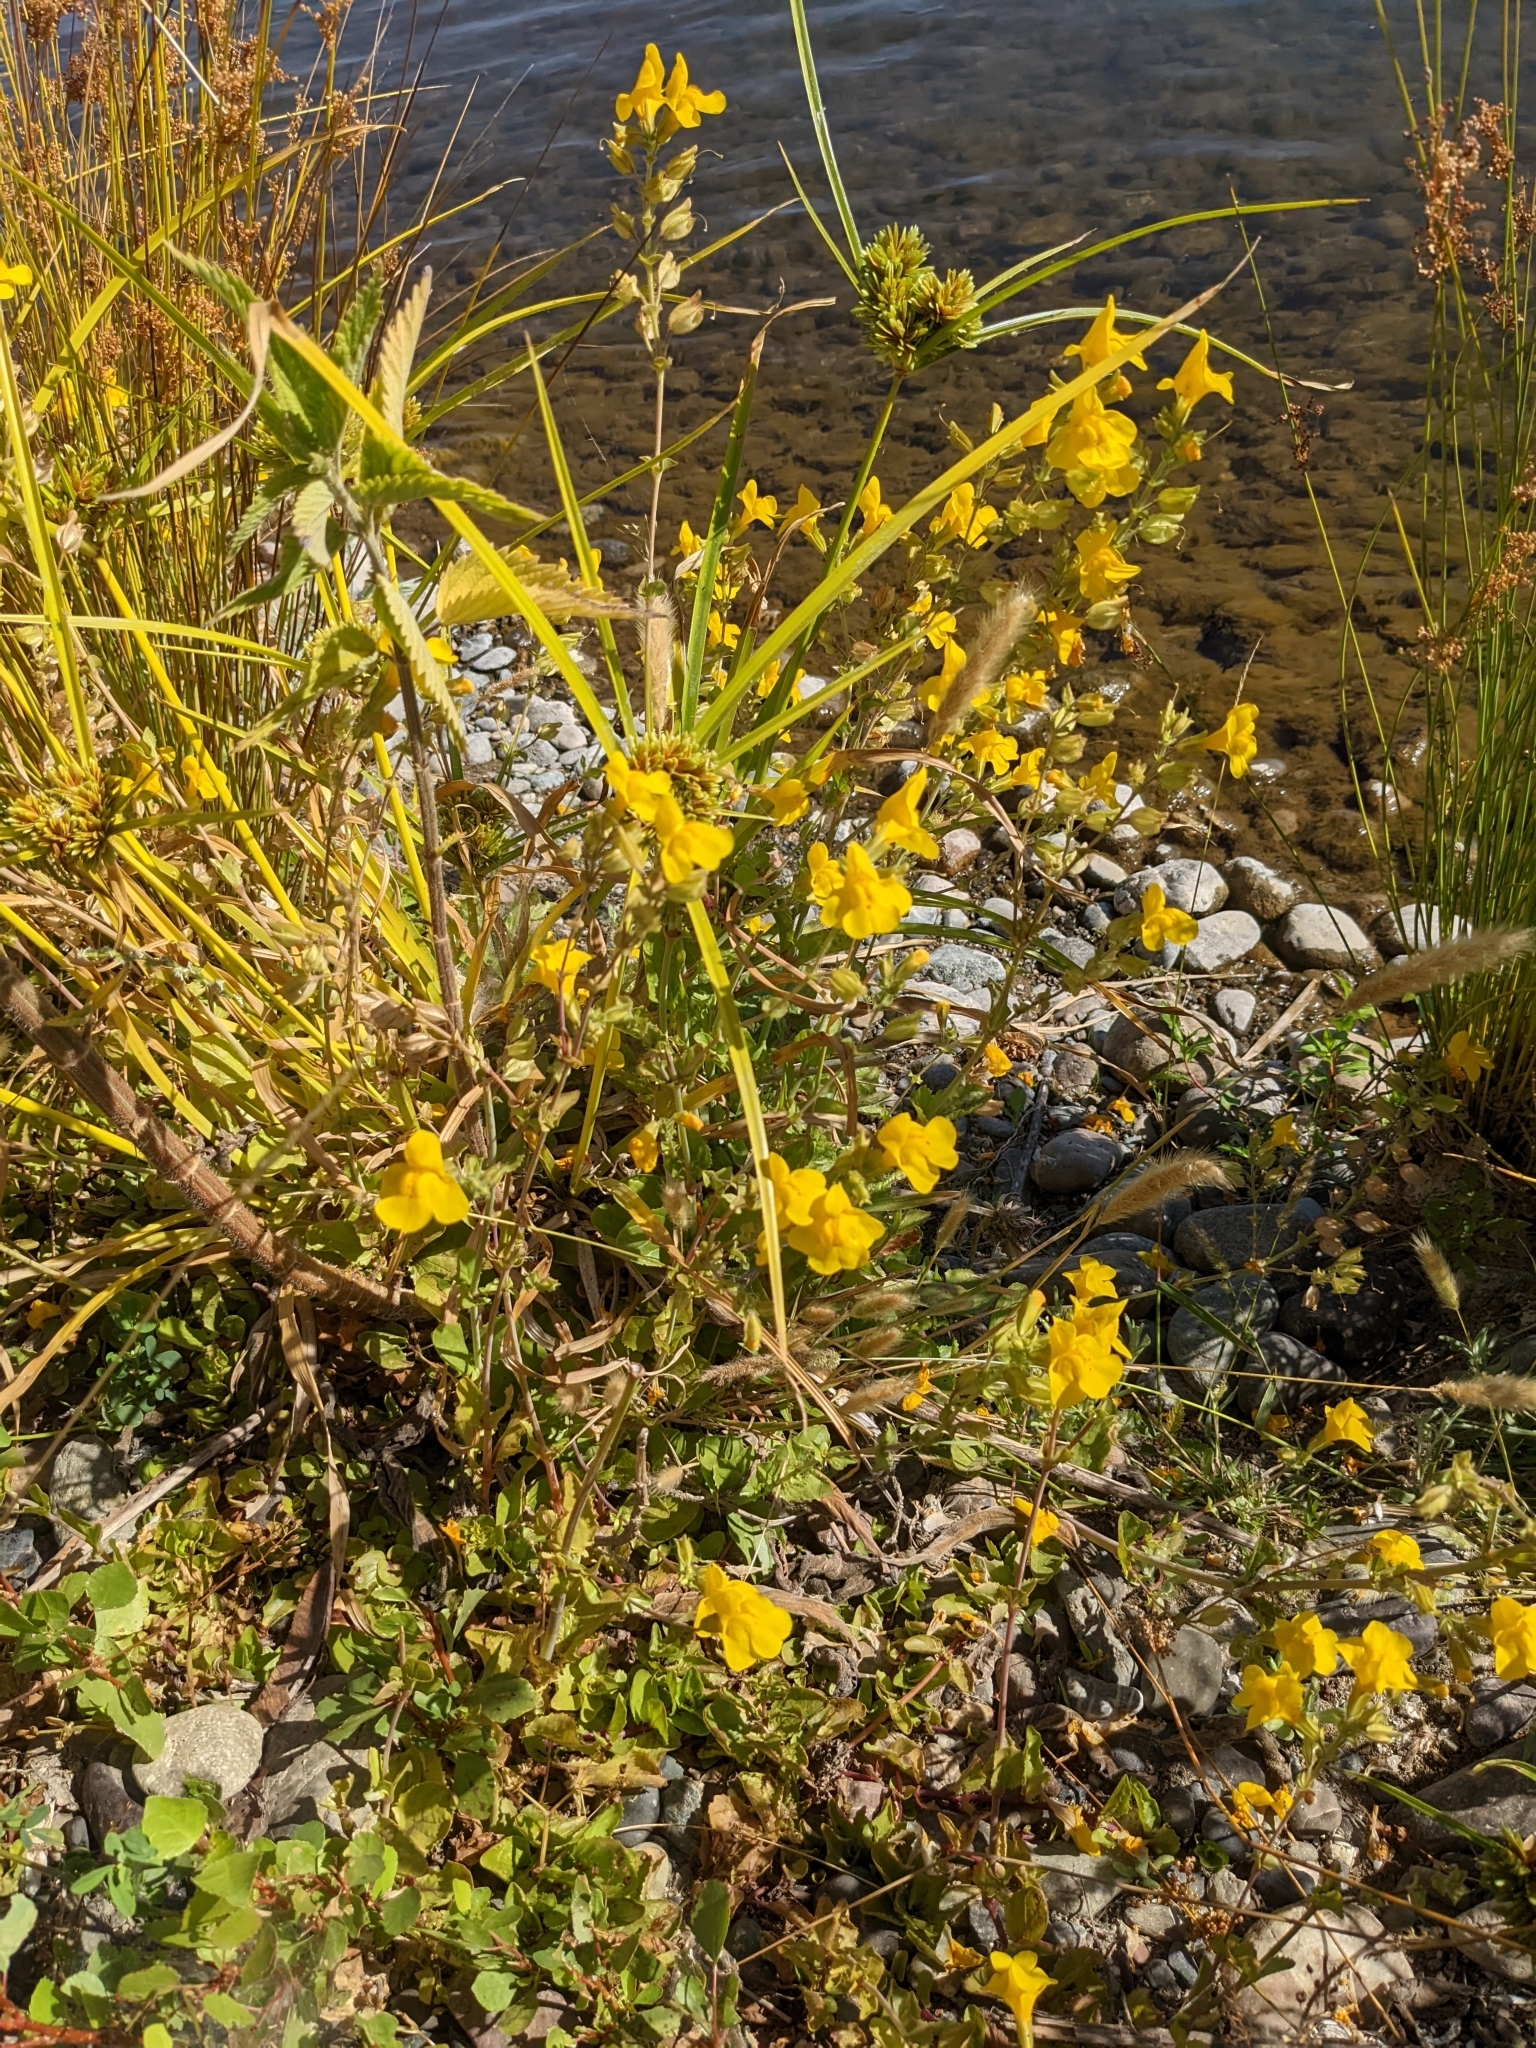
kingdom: Plantae
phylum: Tracheophyta
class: Magnoliopsida
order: Lamiales
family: Phrymaceae
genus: Erythranthe
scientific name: Erythranthe guttata
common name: Monkeyflower
